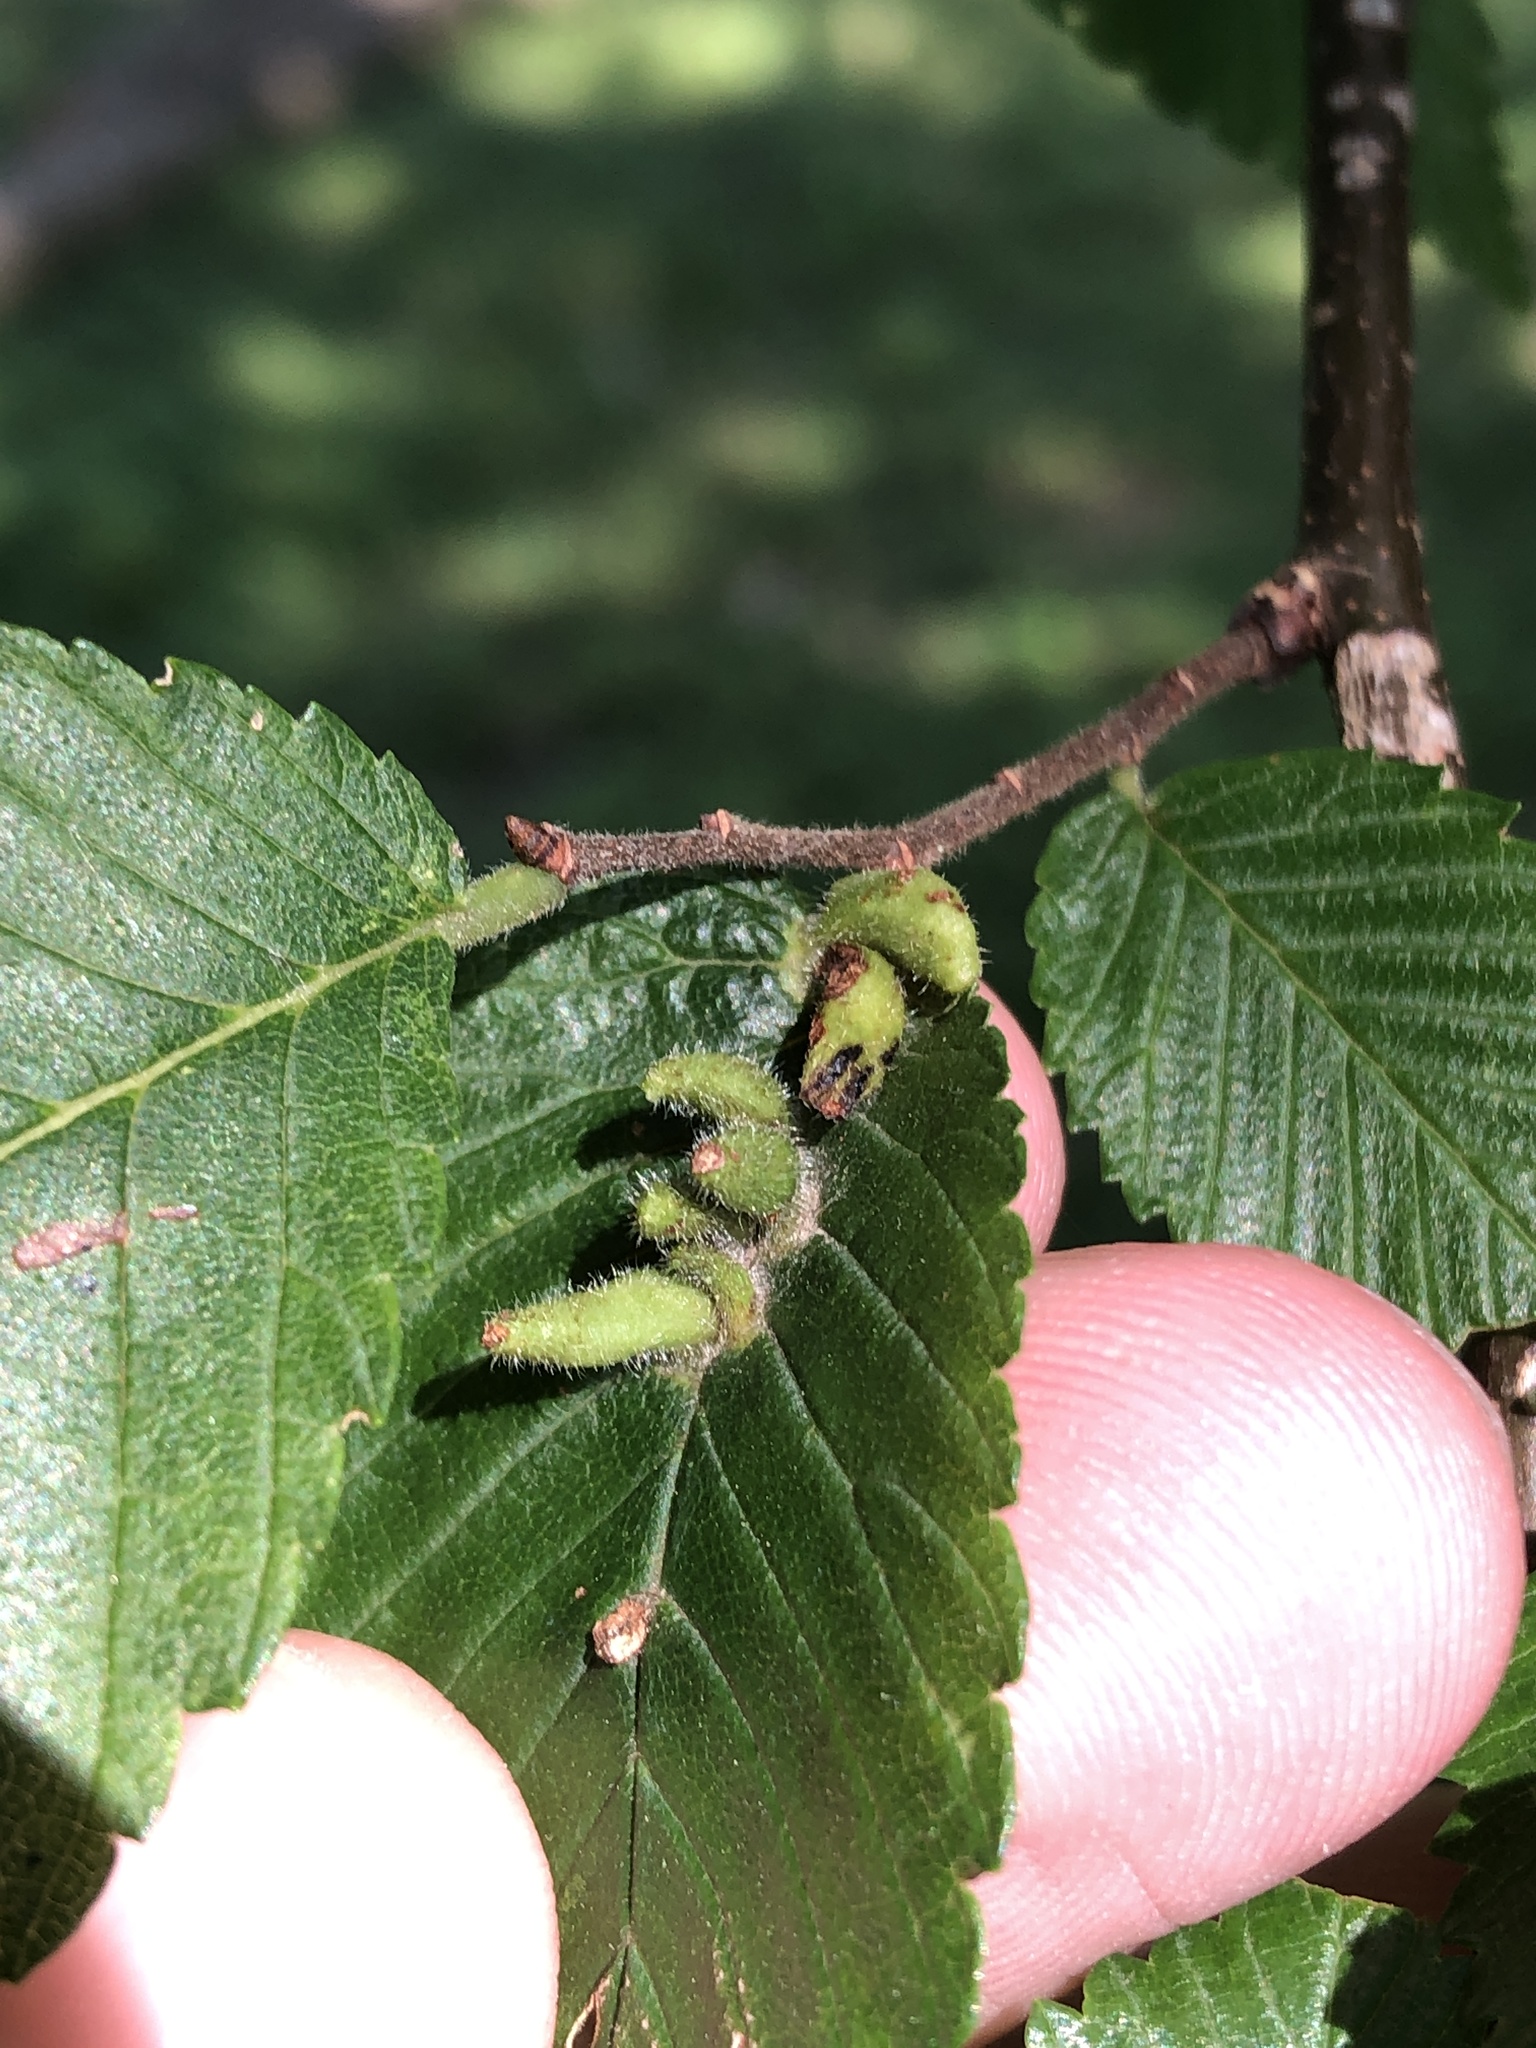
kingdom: Animalia
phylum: Arthropoda
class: Arachnida
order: Trombidiformes
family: Eriophyidae
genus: Aceria
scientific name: Aceria
